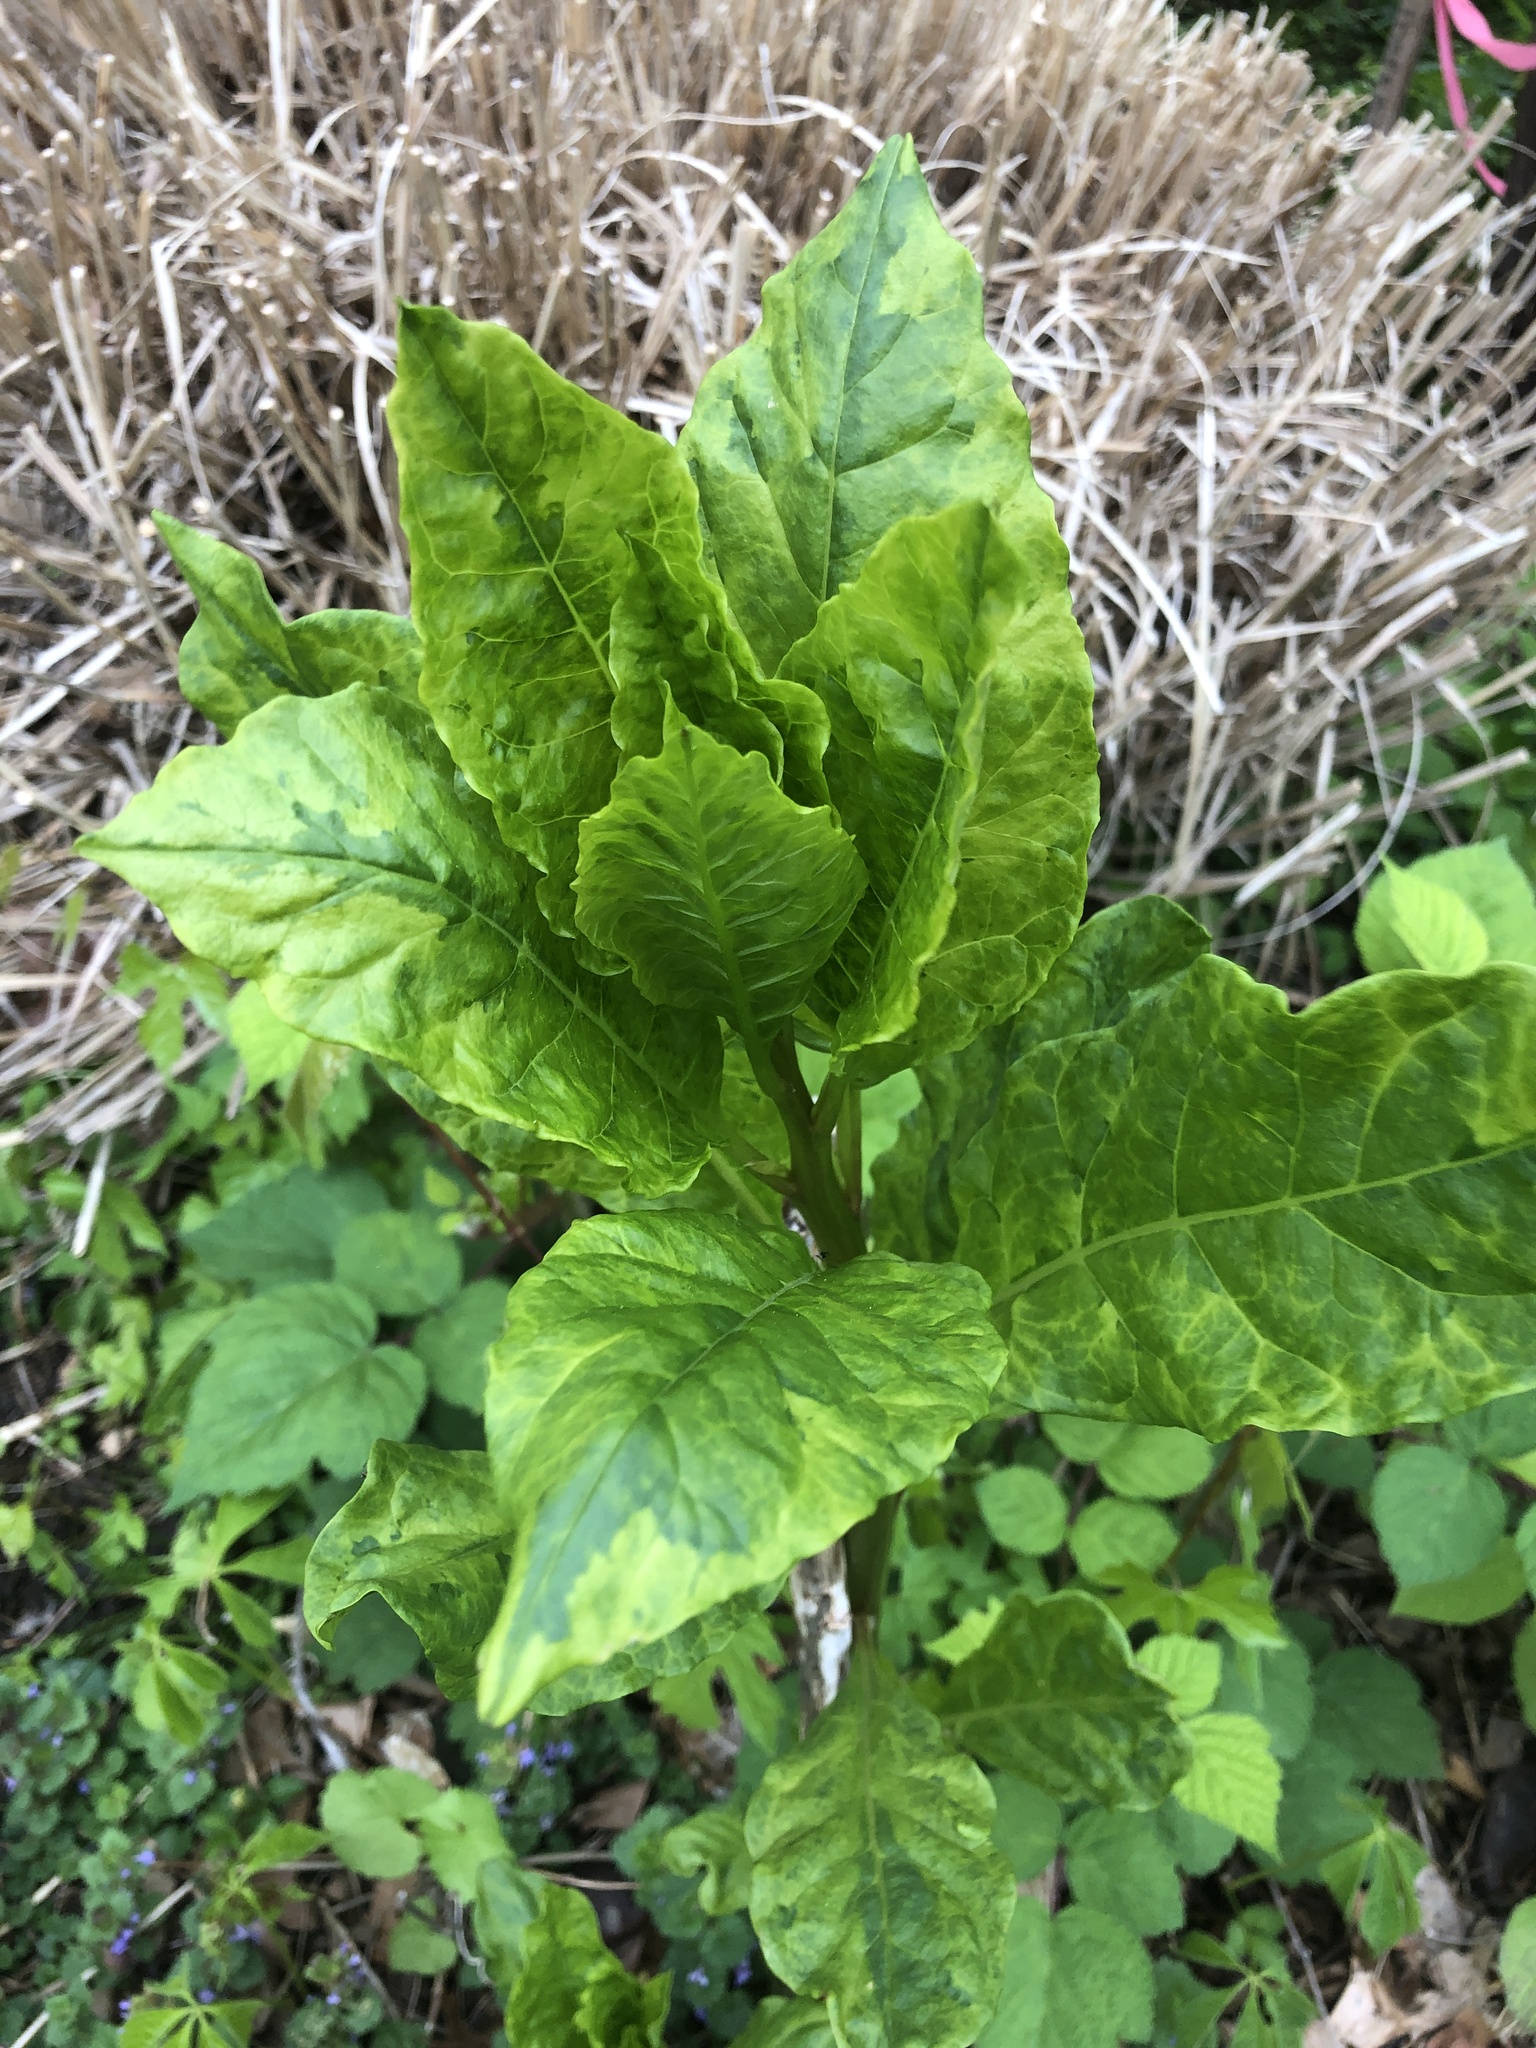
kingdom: Plantae
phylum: Tracheophyta
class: Magnoliopsida
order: Caryophyllales
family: Phytolaccaceae
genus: Phytolacca
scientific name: Phytolacca americana
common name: American pokeweed
